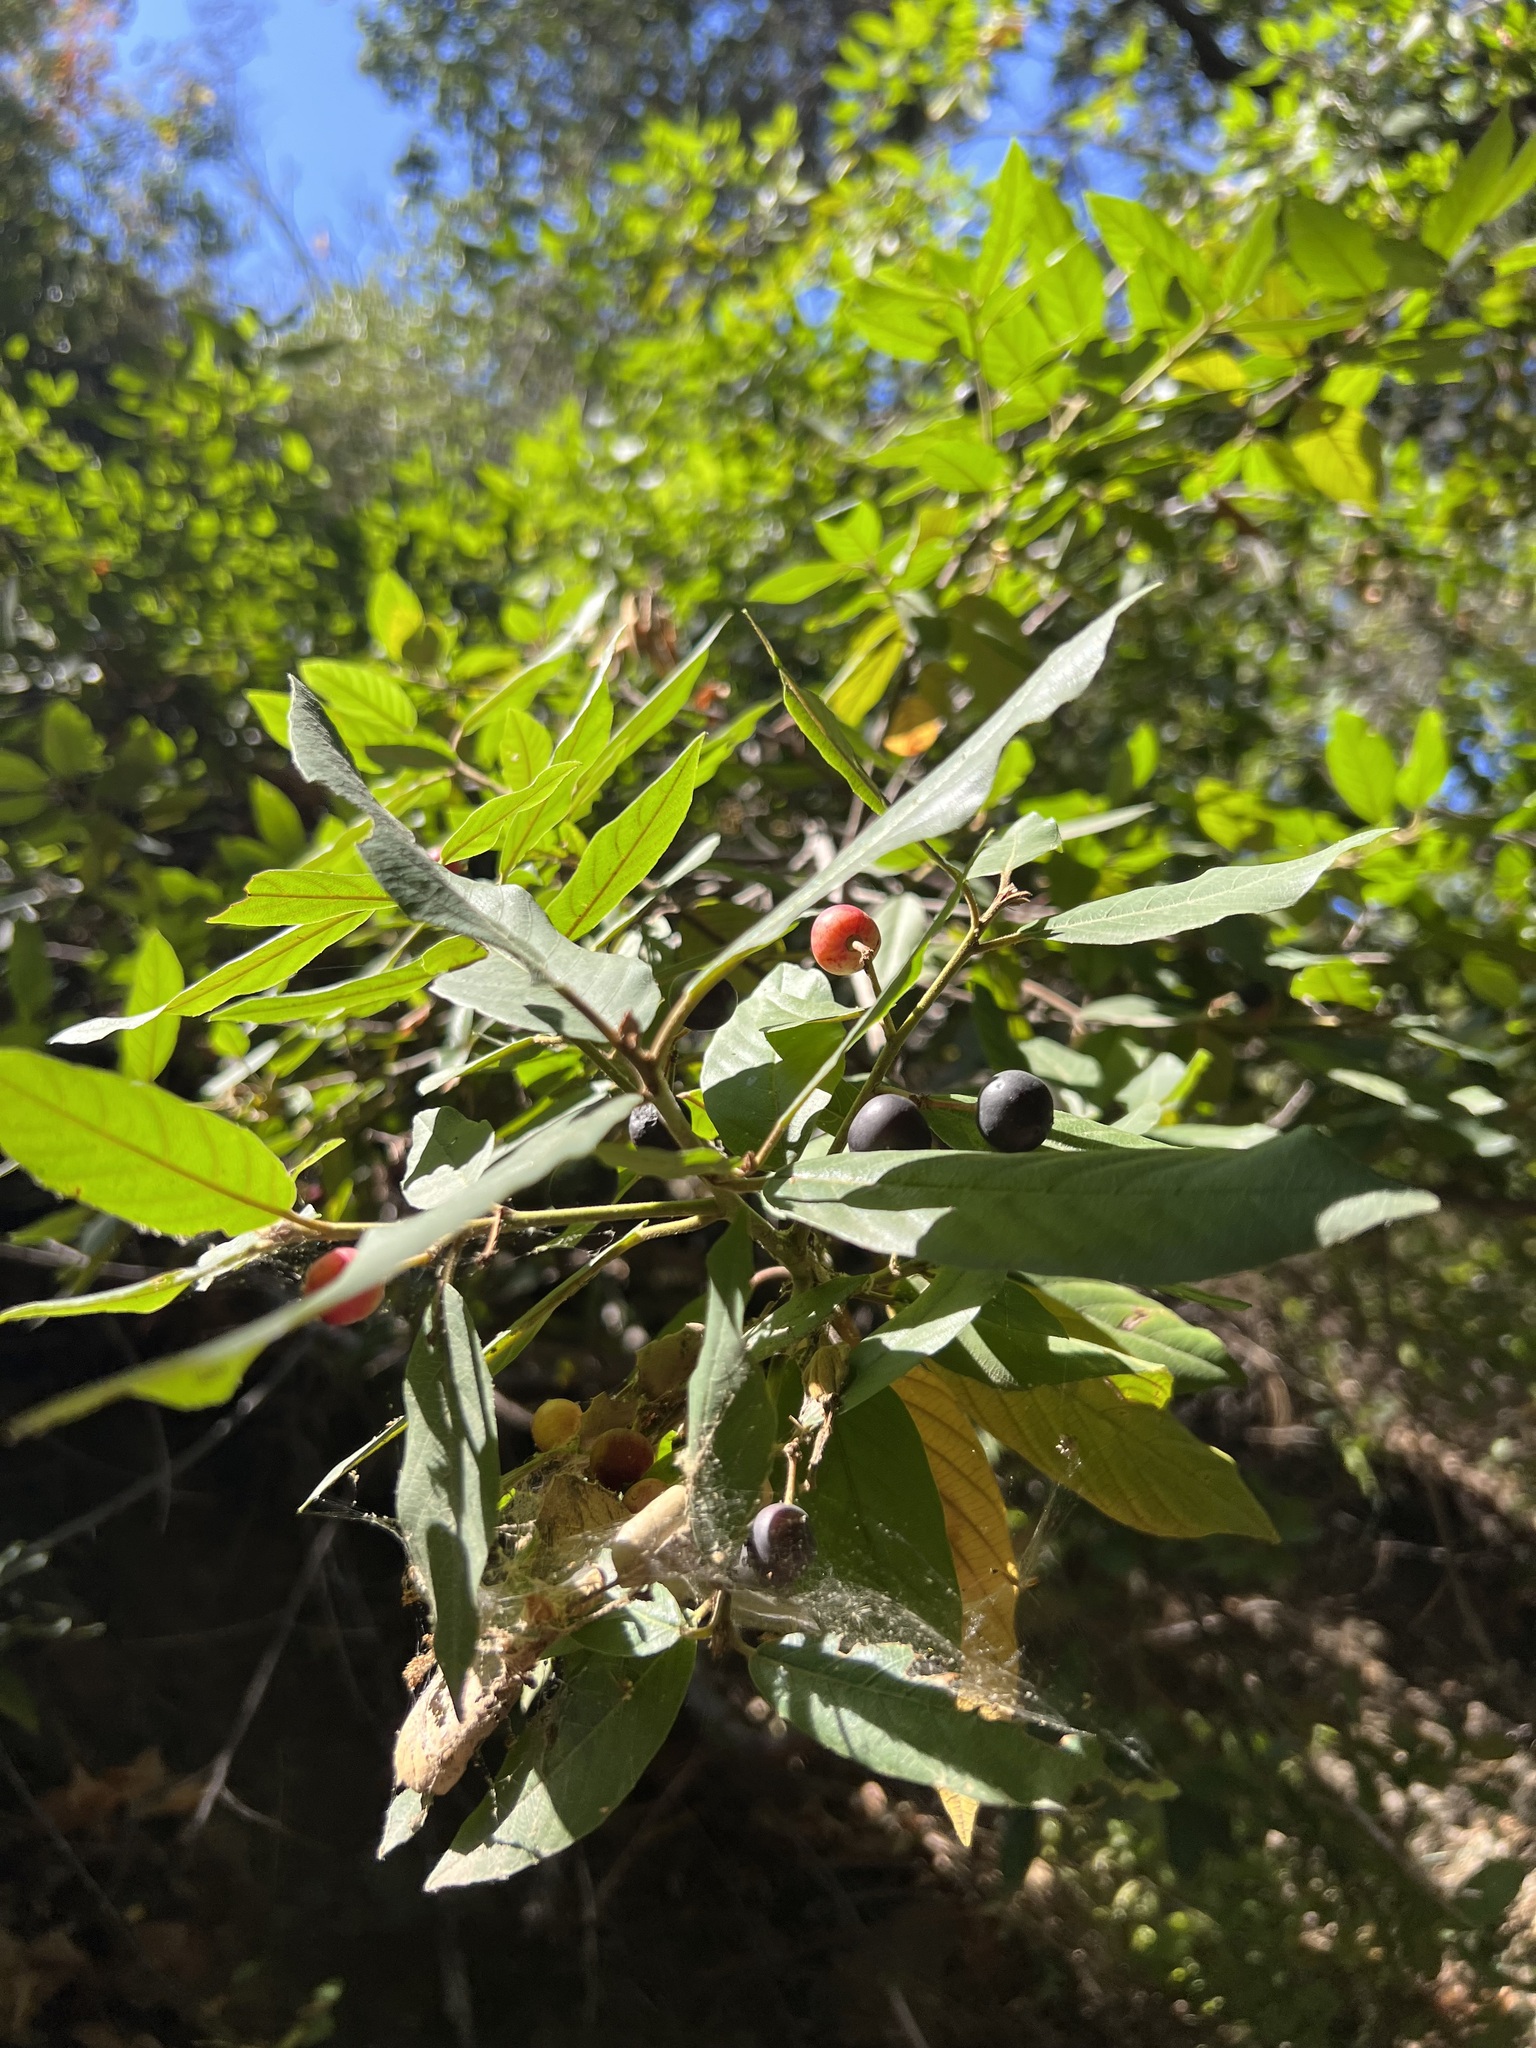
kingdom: Plantae
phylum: Tracheophyta
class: Magnoliopsida
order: Rosales
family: Rhamnaceae
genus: Frangula
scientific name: Frangula californica
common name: California buckthorn
